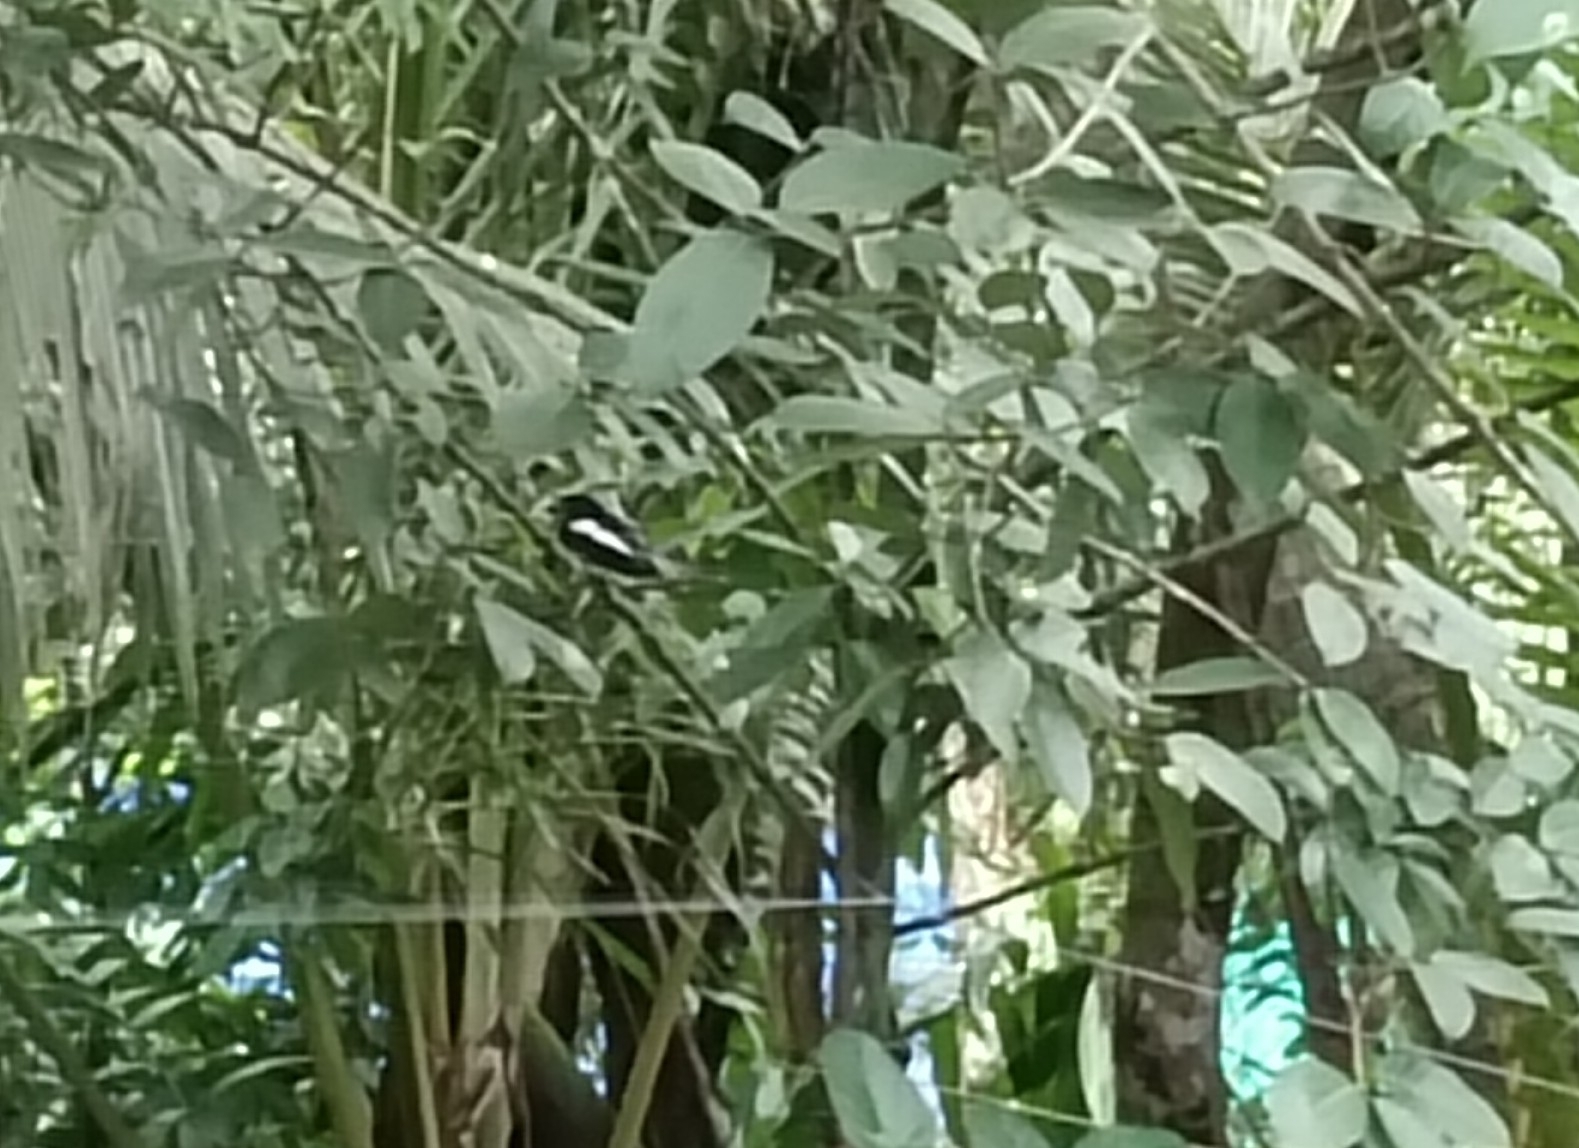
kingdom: Animalia
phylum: Chordata
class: Aves
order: Passeriformes
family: Muscicapidae
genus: Copsychus
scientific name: Copsychus saularis
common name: Oriental magpie-robin
